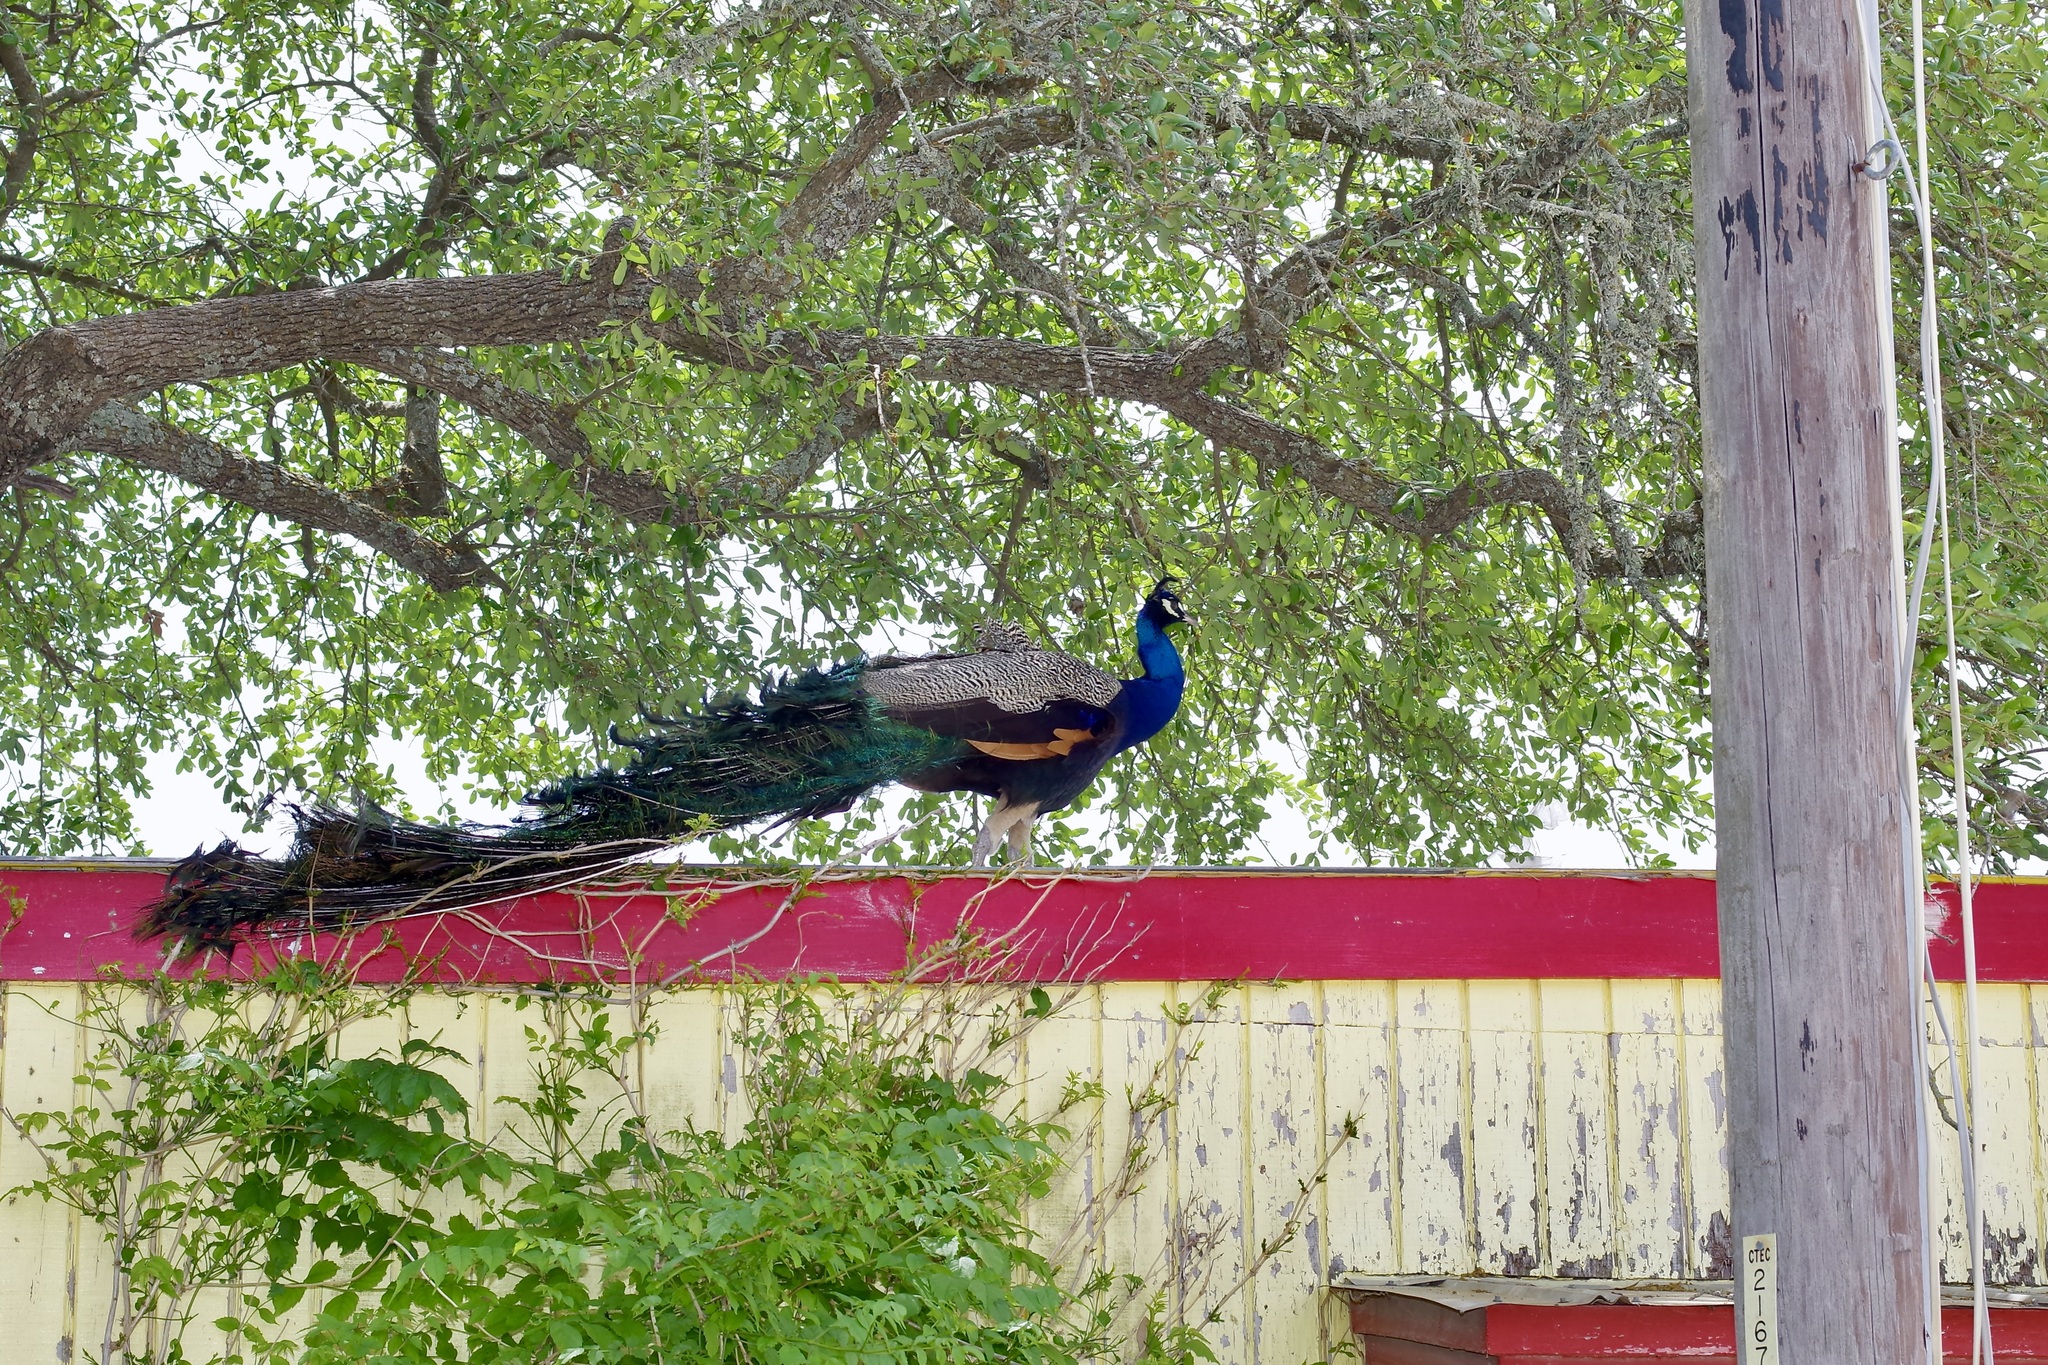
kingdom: Animalia
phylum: Chordata
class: Aves
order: Galliformes
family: Phasianidae
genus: Pavo
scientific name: Pavo cristatus
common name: Indian peafowl
